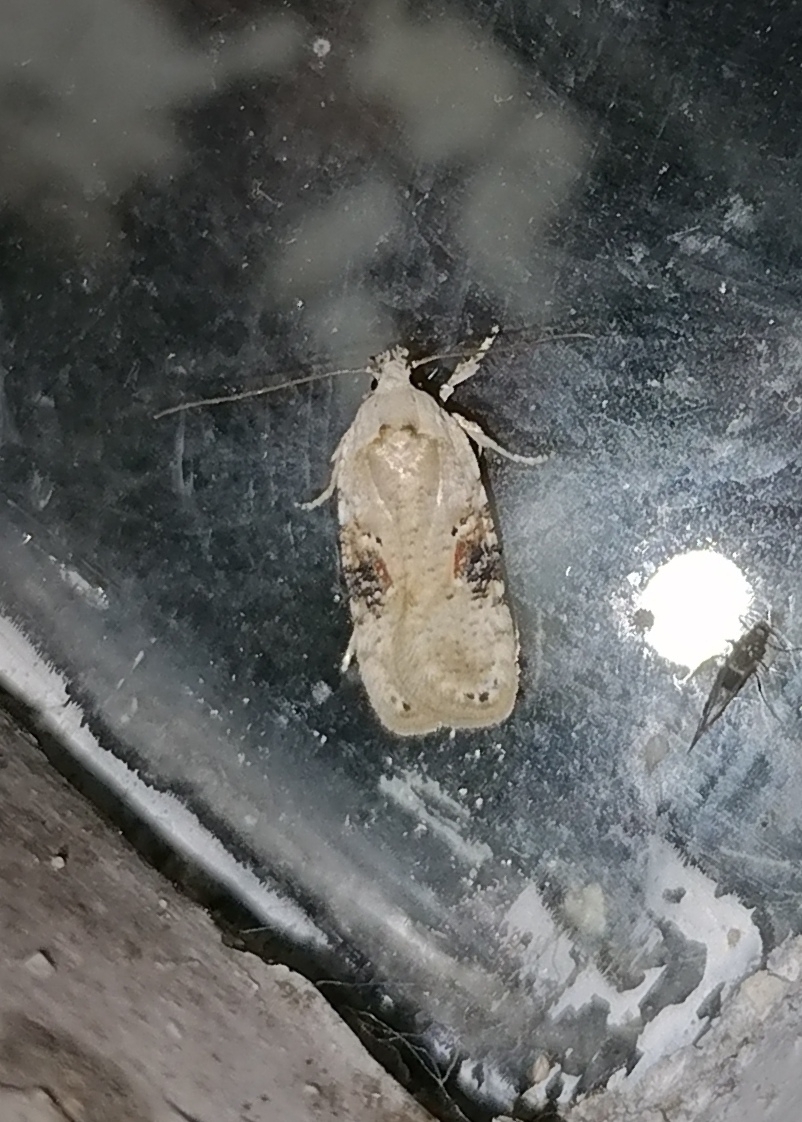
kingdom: Animalia
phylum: Arthropoda
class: Insecta
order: Lepidoptera
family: Depressariidae
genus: Agonopterix
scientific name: Agonopterix alstroemeriana
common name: Moth
